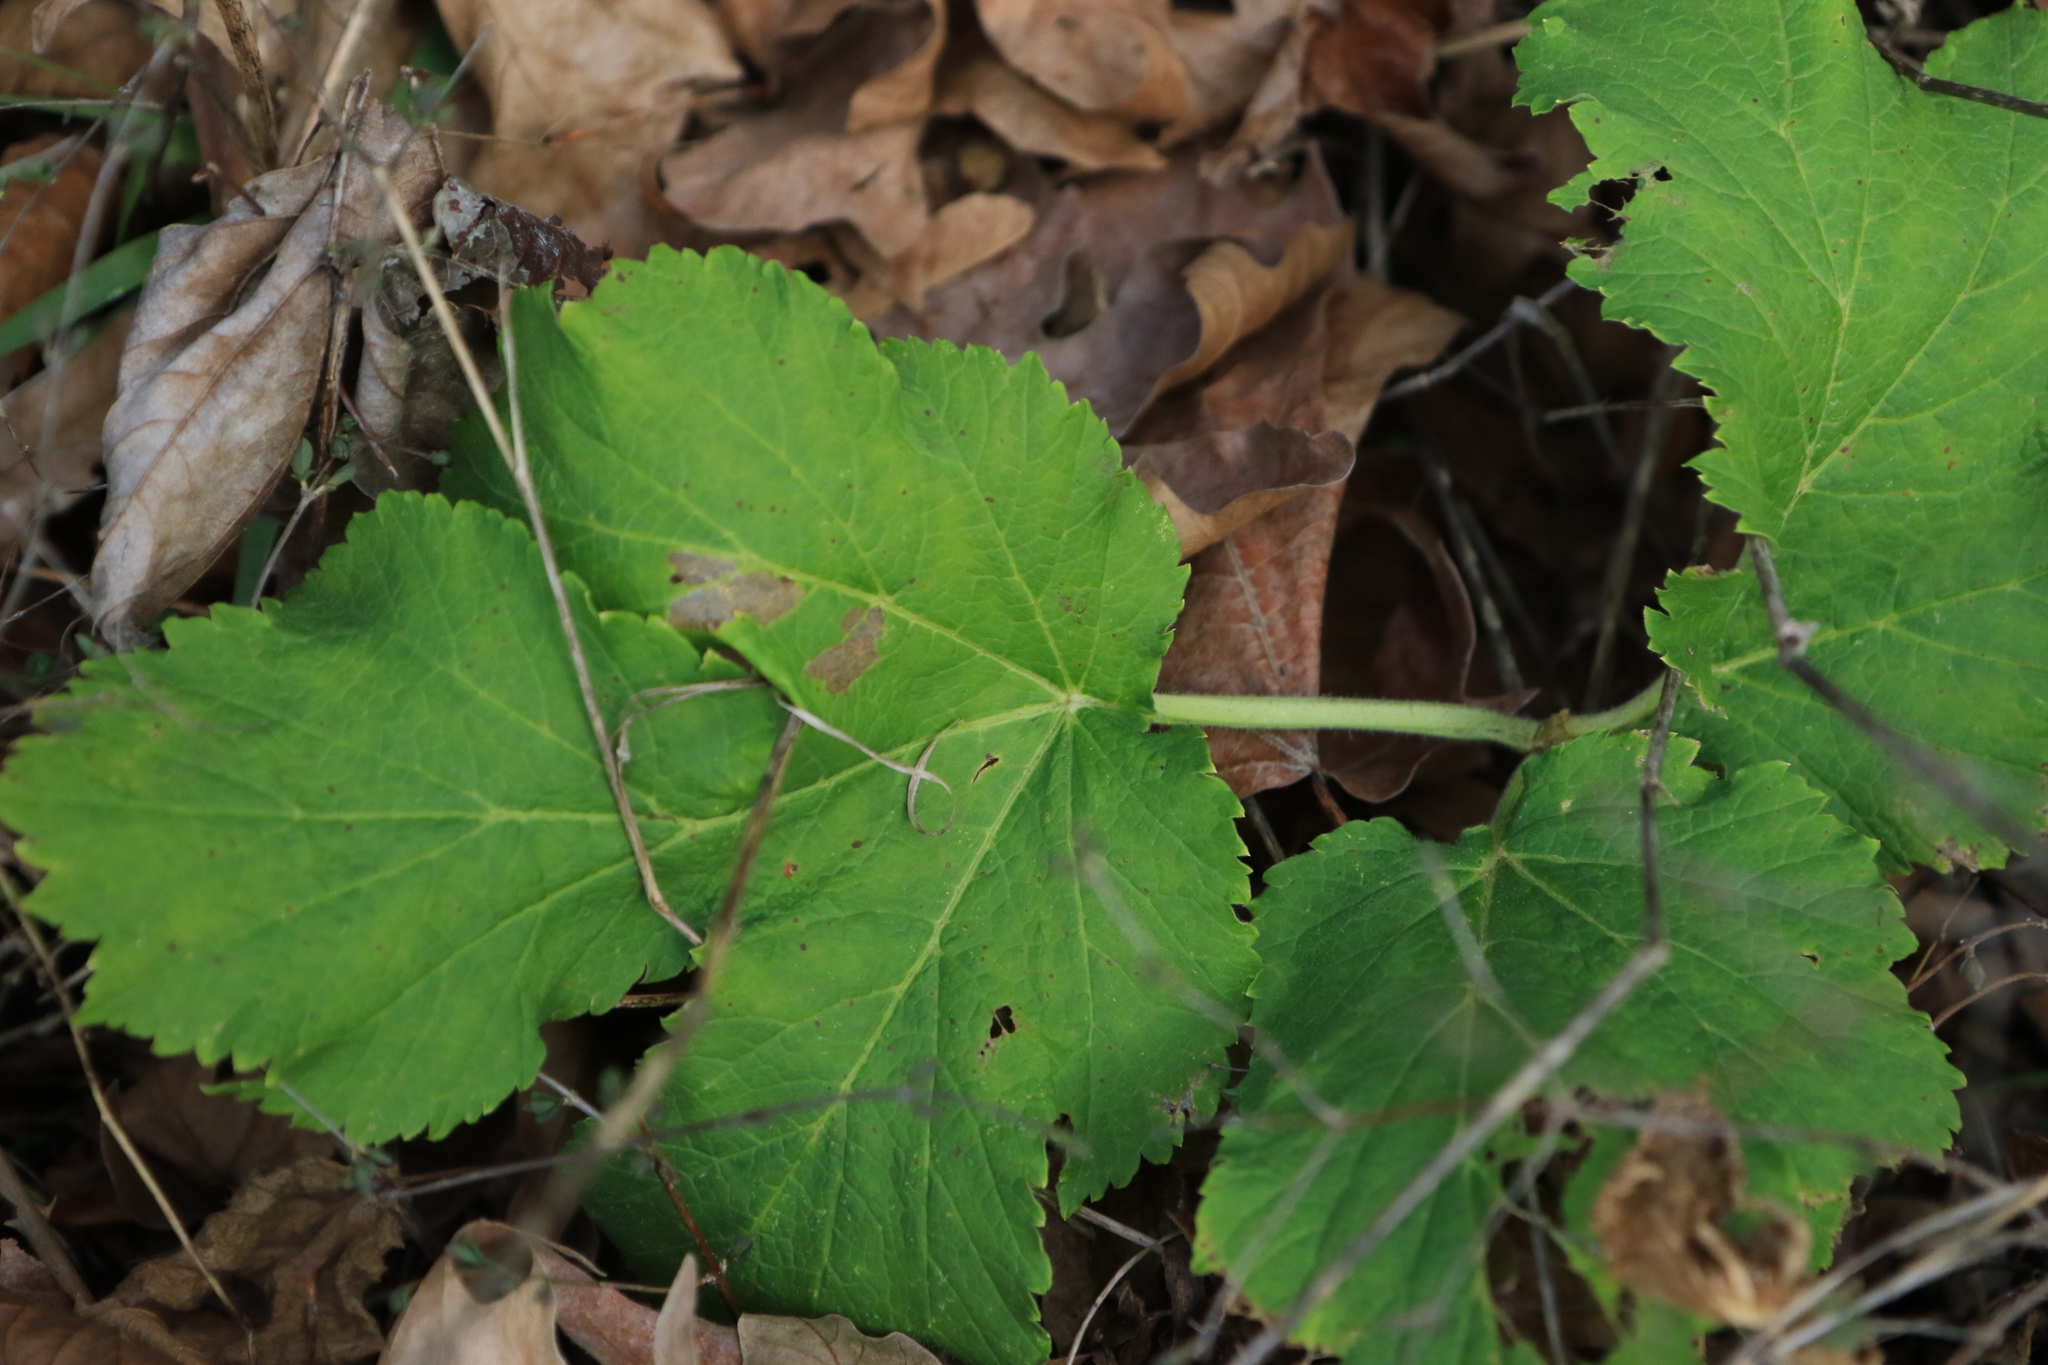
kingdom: Plantae
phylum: Tracheophyta
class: Magnoliopsida
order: Apiales
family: Apiaceae
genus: Heracleum
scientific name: Heracleum maximum
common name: American cow parsnip
